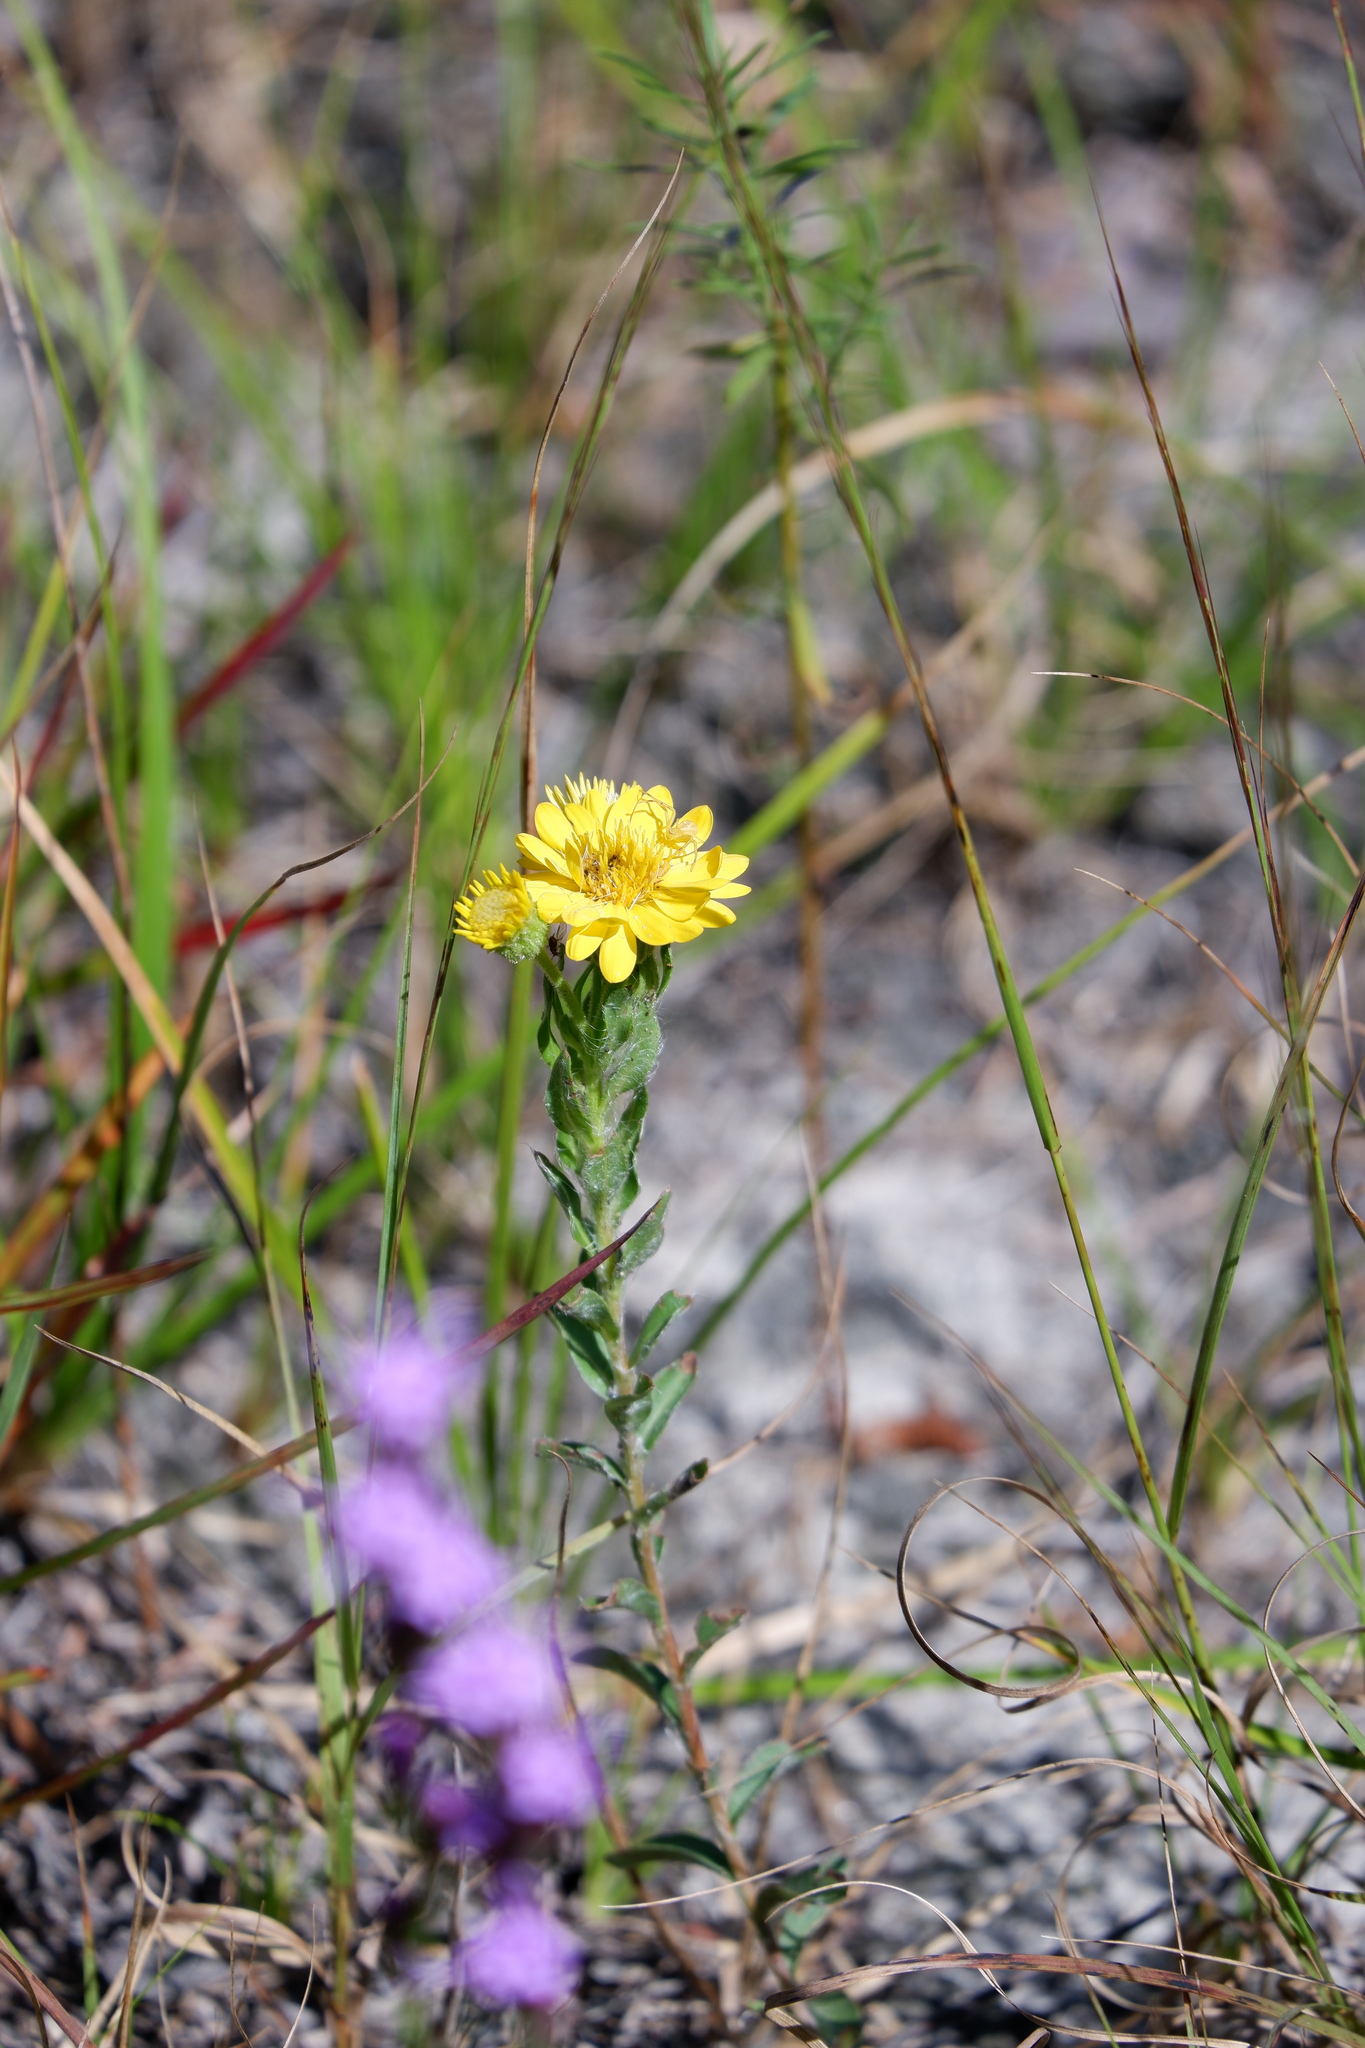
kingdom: Plantae
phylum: Tracheophyta
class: Magnoliopsida
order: Asterales
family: Asteraceae
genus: Chrysopsis
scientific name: Chrysopsis mariana
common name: Maryland golden-aster
